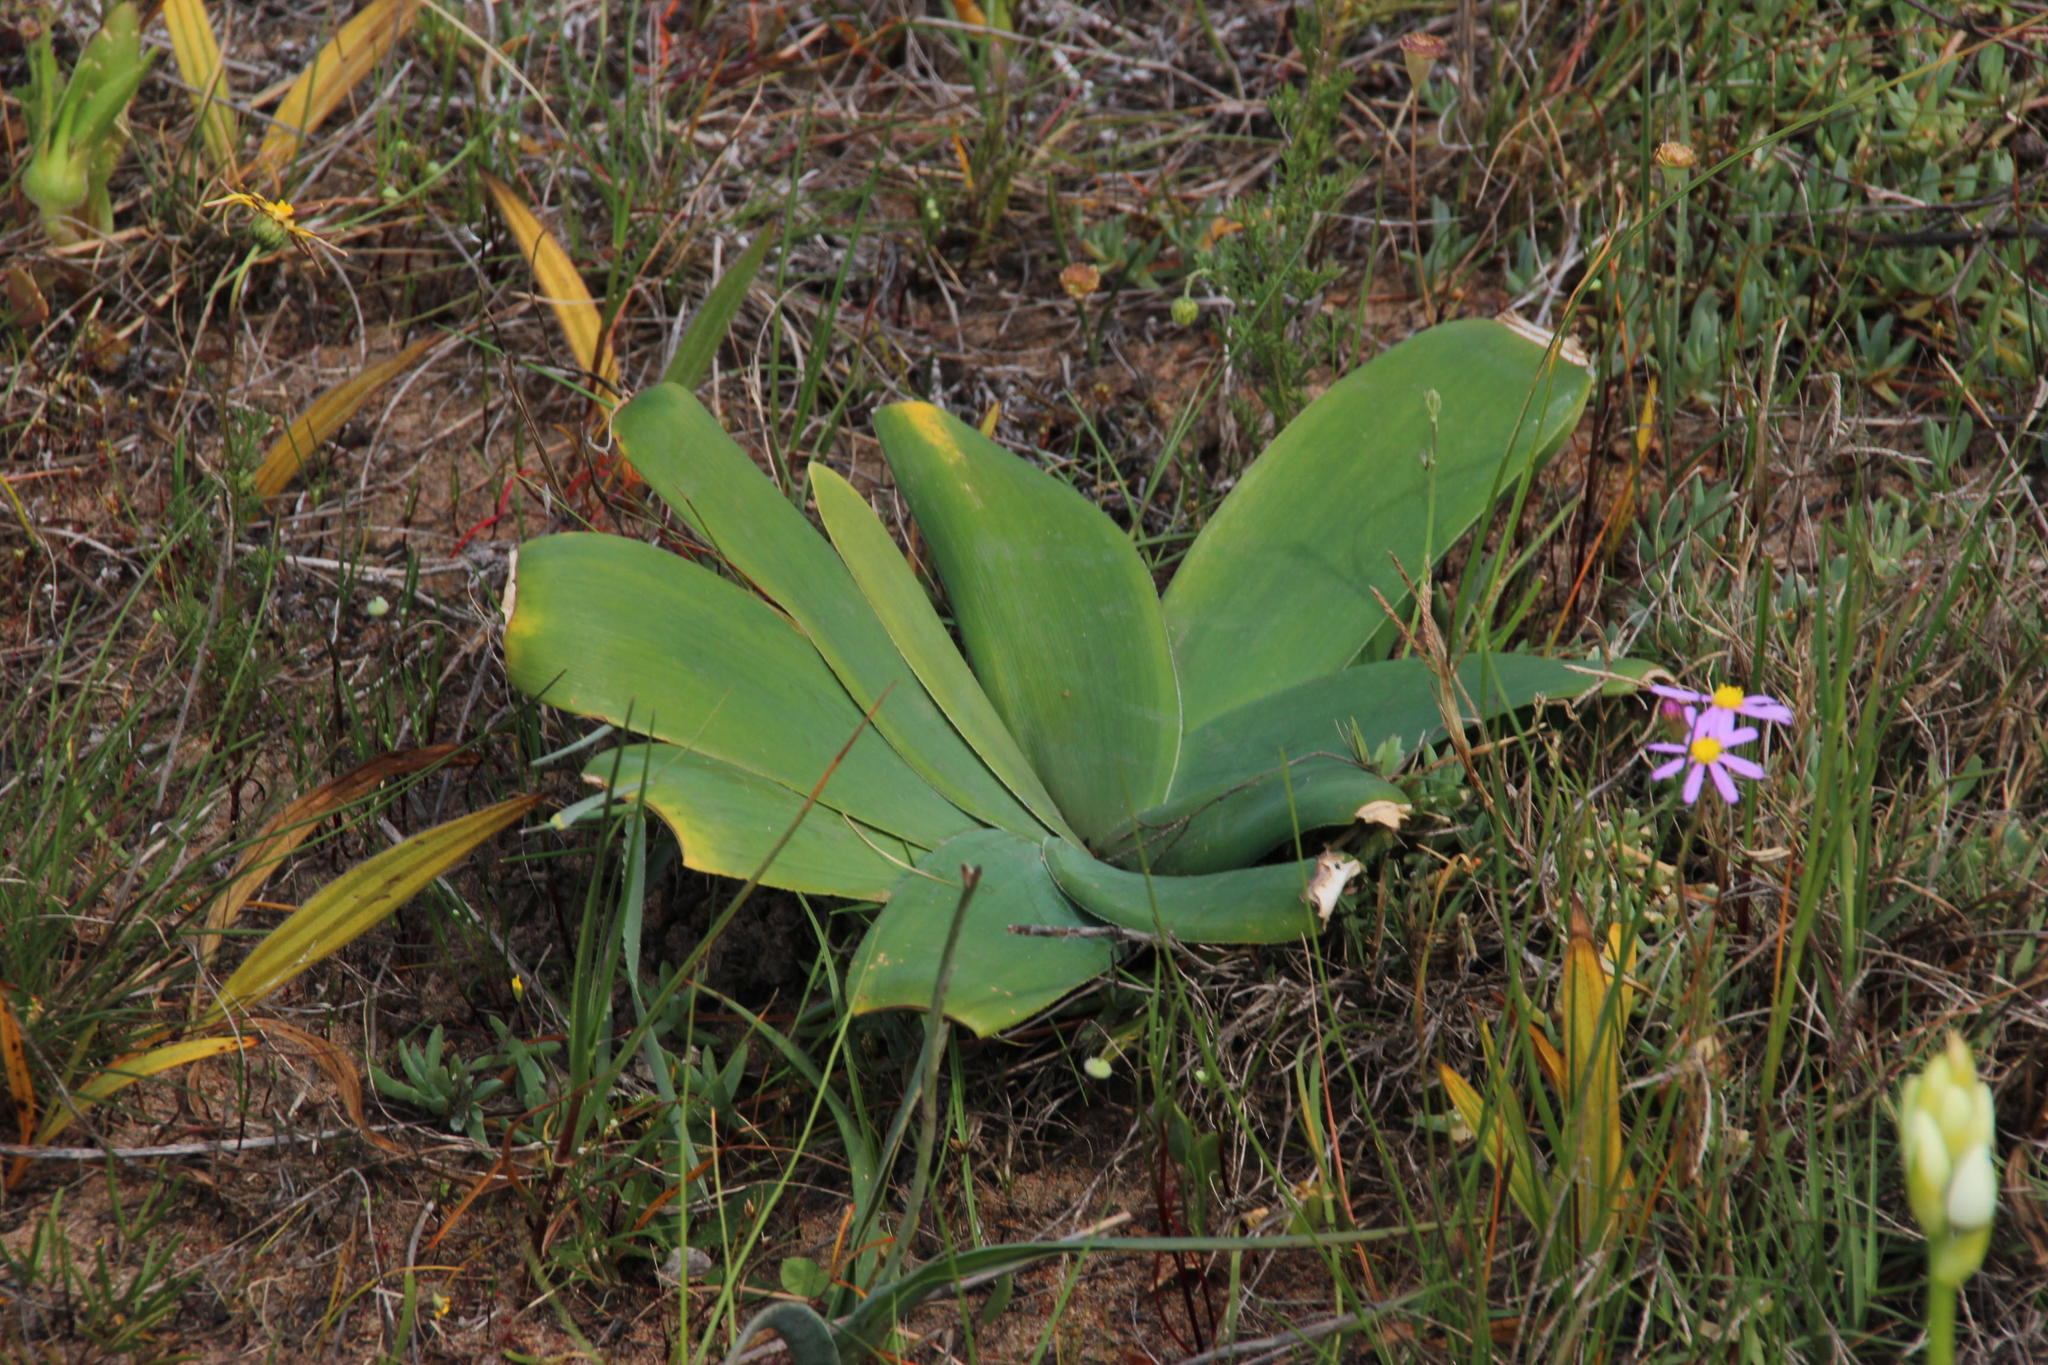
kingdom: Plantae
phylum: Tracheophyta
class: Liliopsida
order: Asparagales
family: Amaryllidaceae
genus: Ammocharis
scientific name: Ammocharis longifolia
